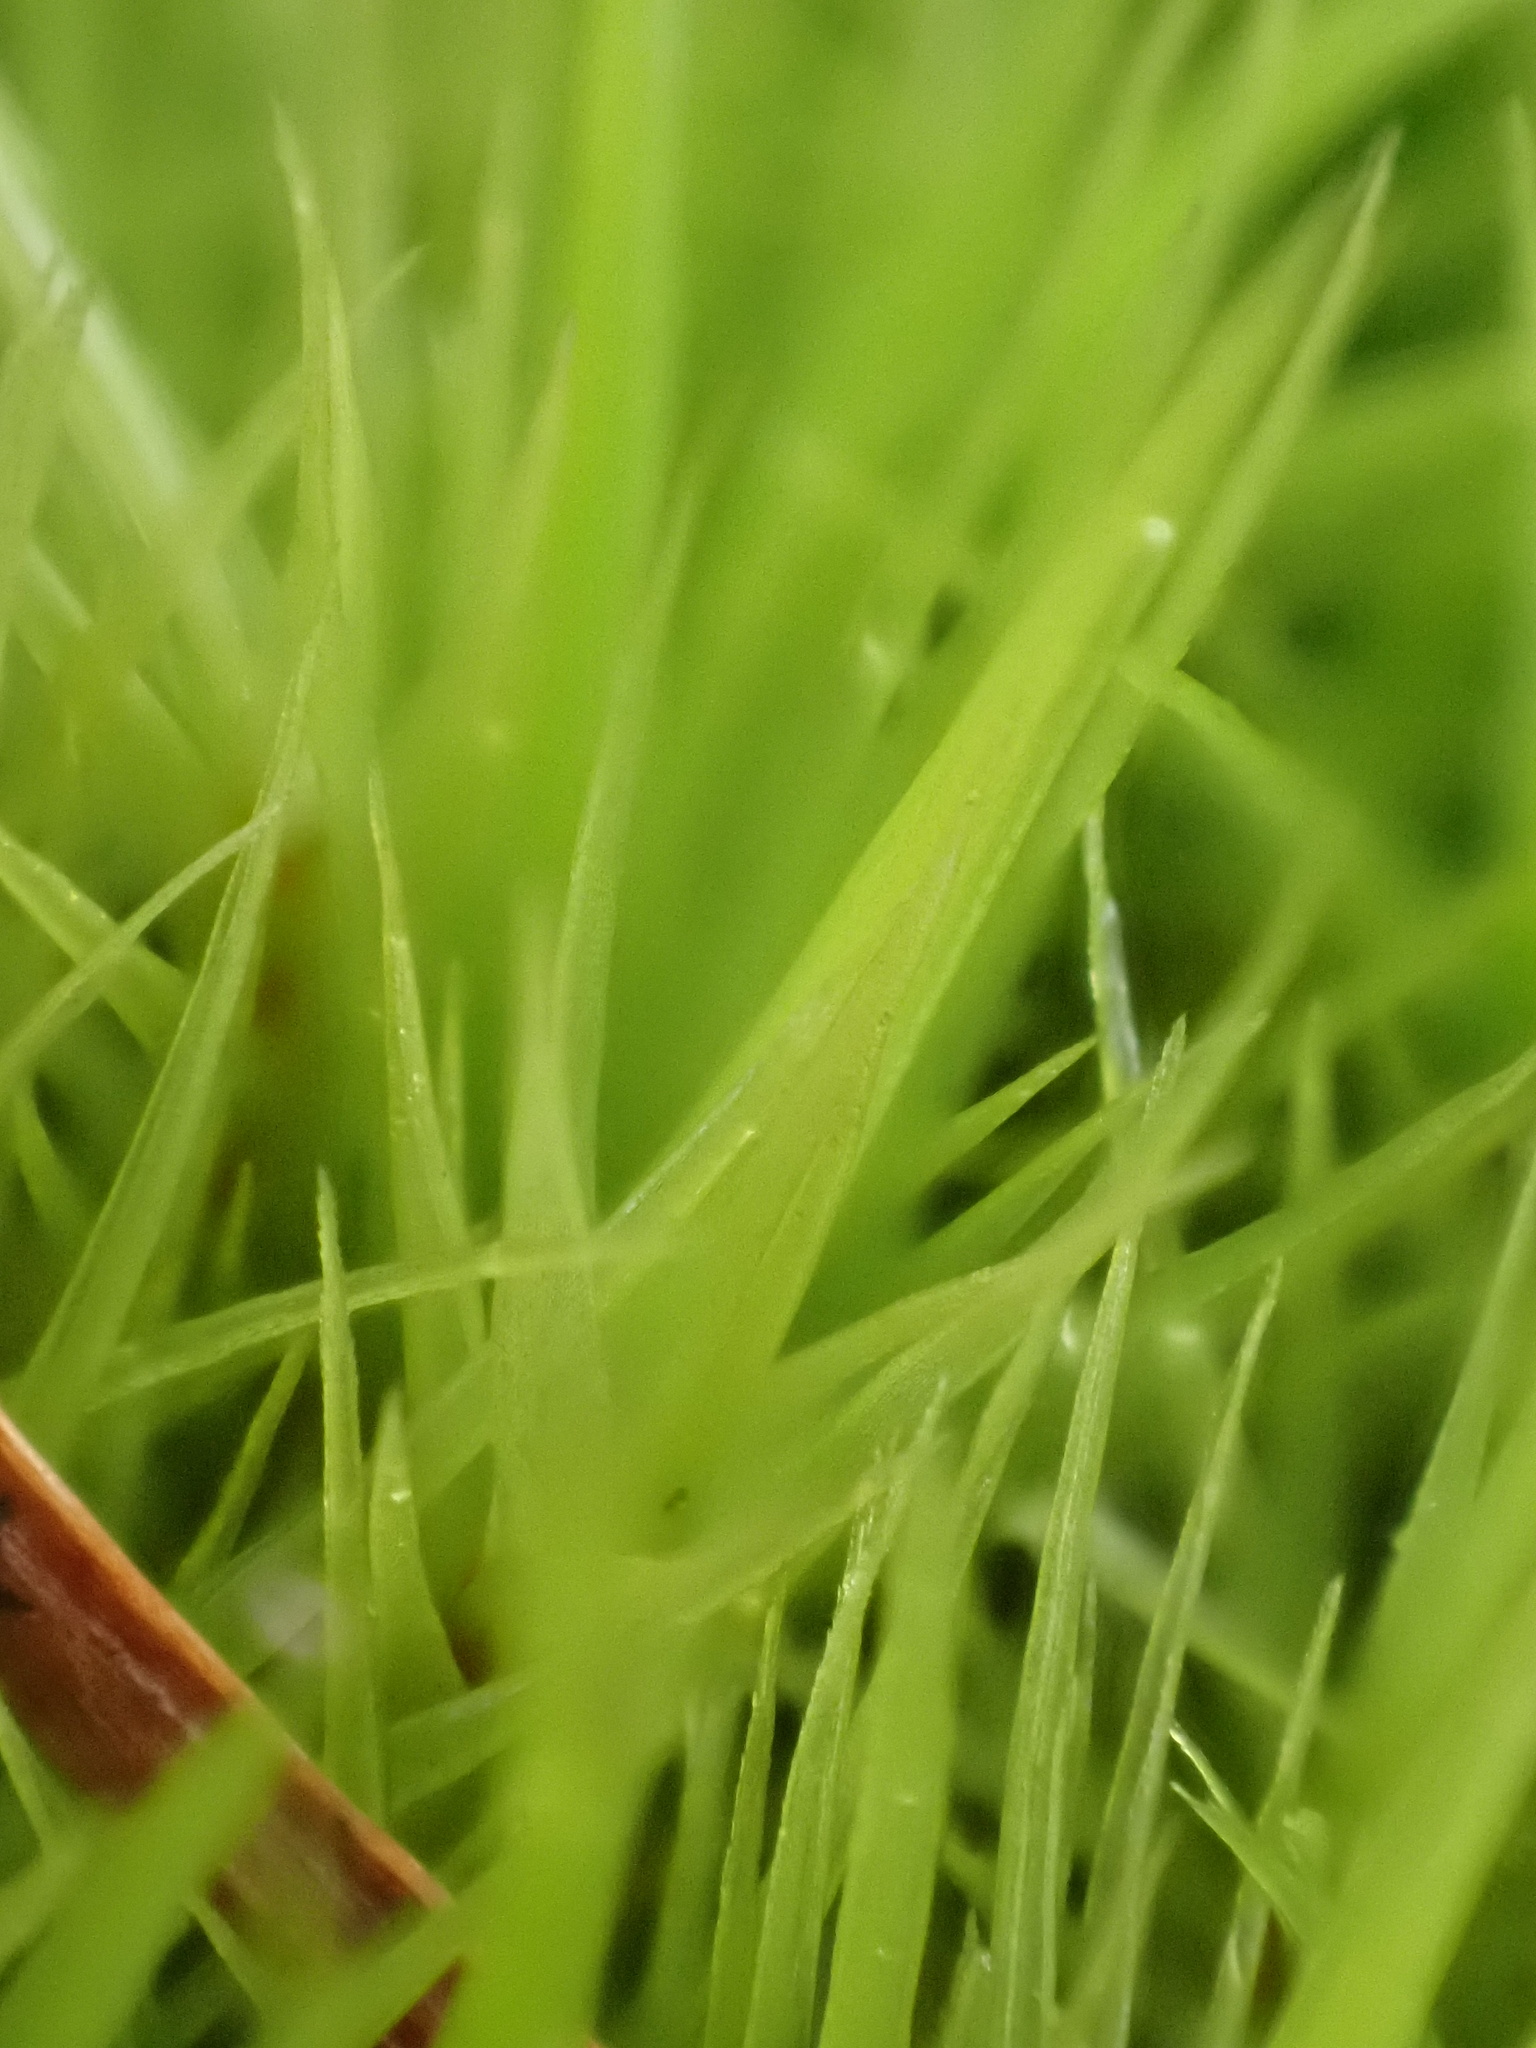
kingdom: Plantae
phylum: Bryophyta
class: Bryopsida
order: Dicranales
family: Dicranaceae
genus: Dicranum
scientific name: Dicranum scoparium
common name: Broom fork-moss
